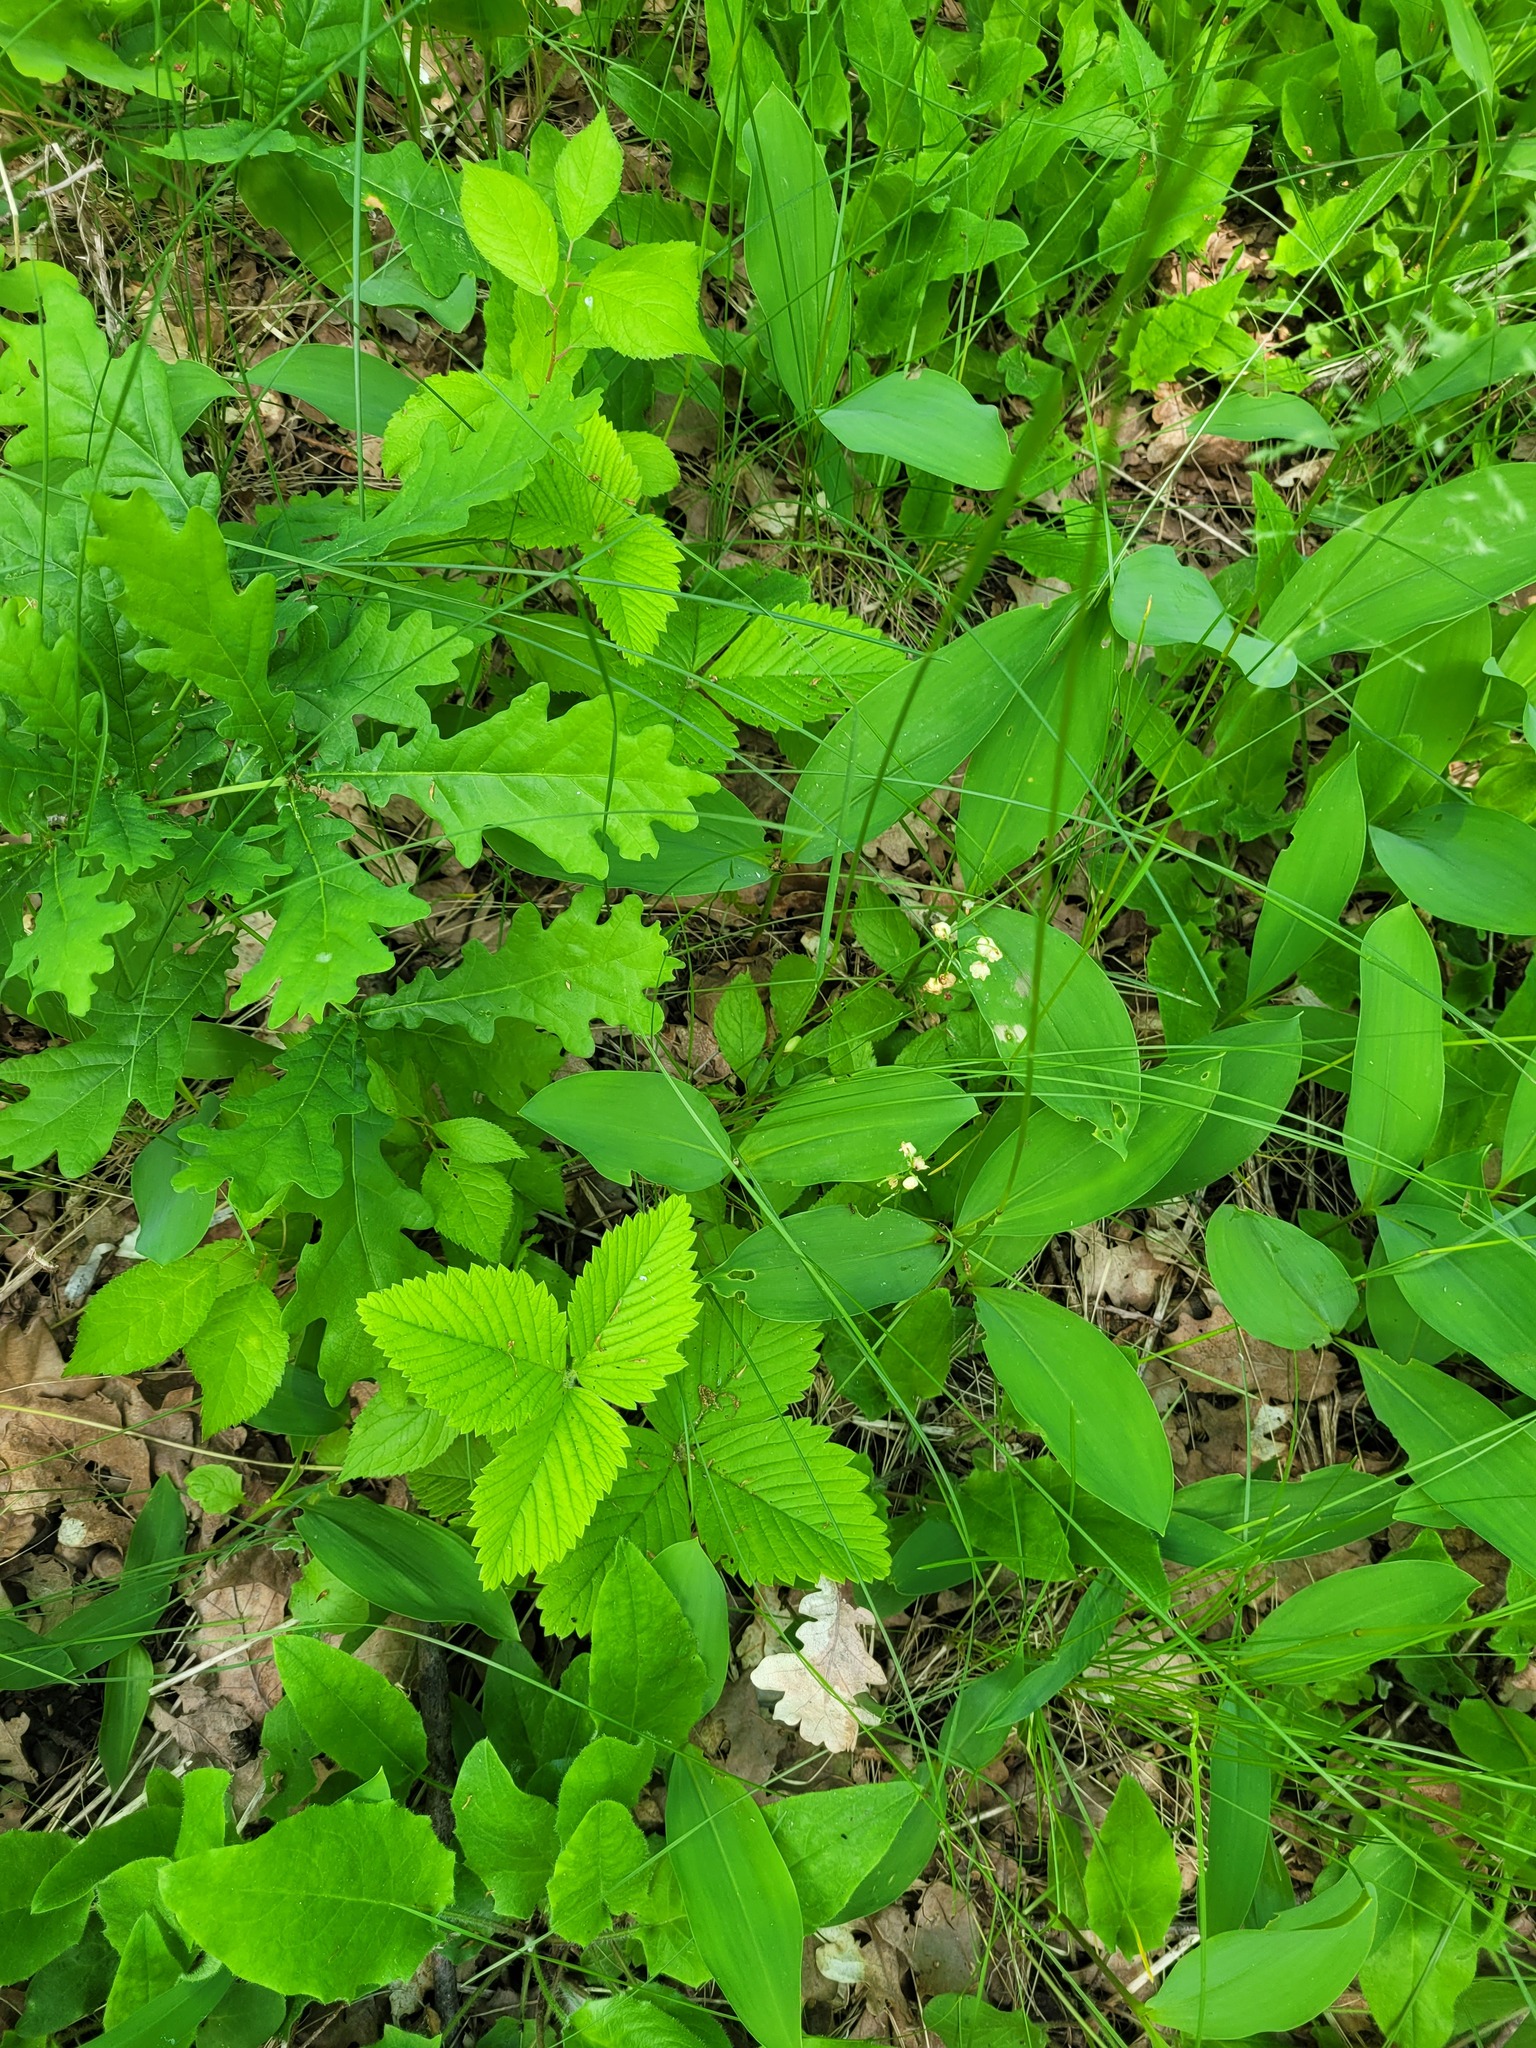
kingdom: Plantae
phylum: Tracheophyta
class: Liliopsida
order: Asparagales
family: Asparagaceae
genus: Convallaria
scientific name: Convallaria majalis
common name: Lily-of-the-valley
